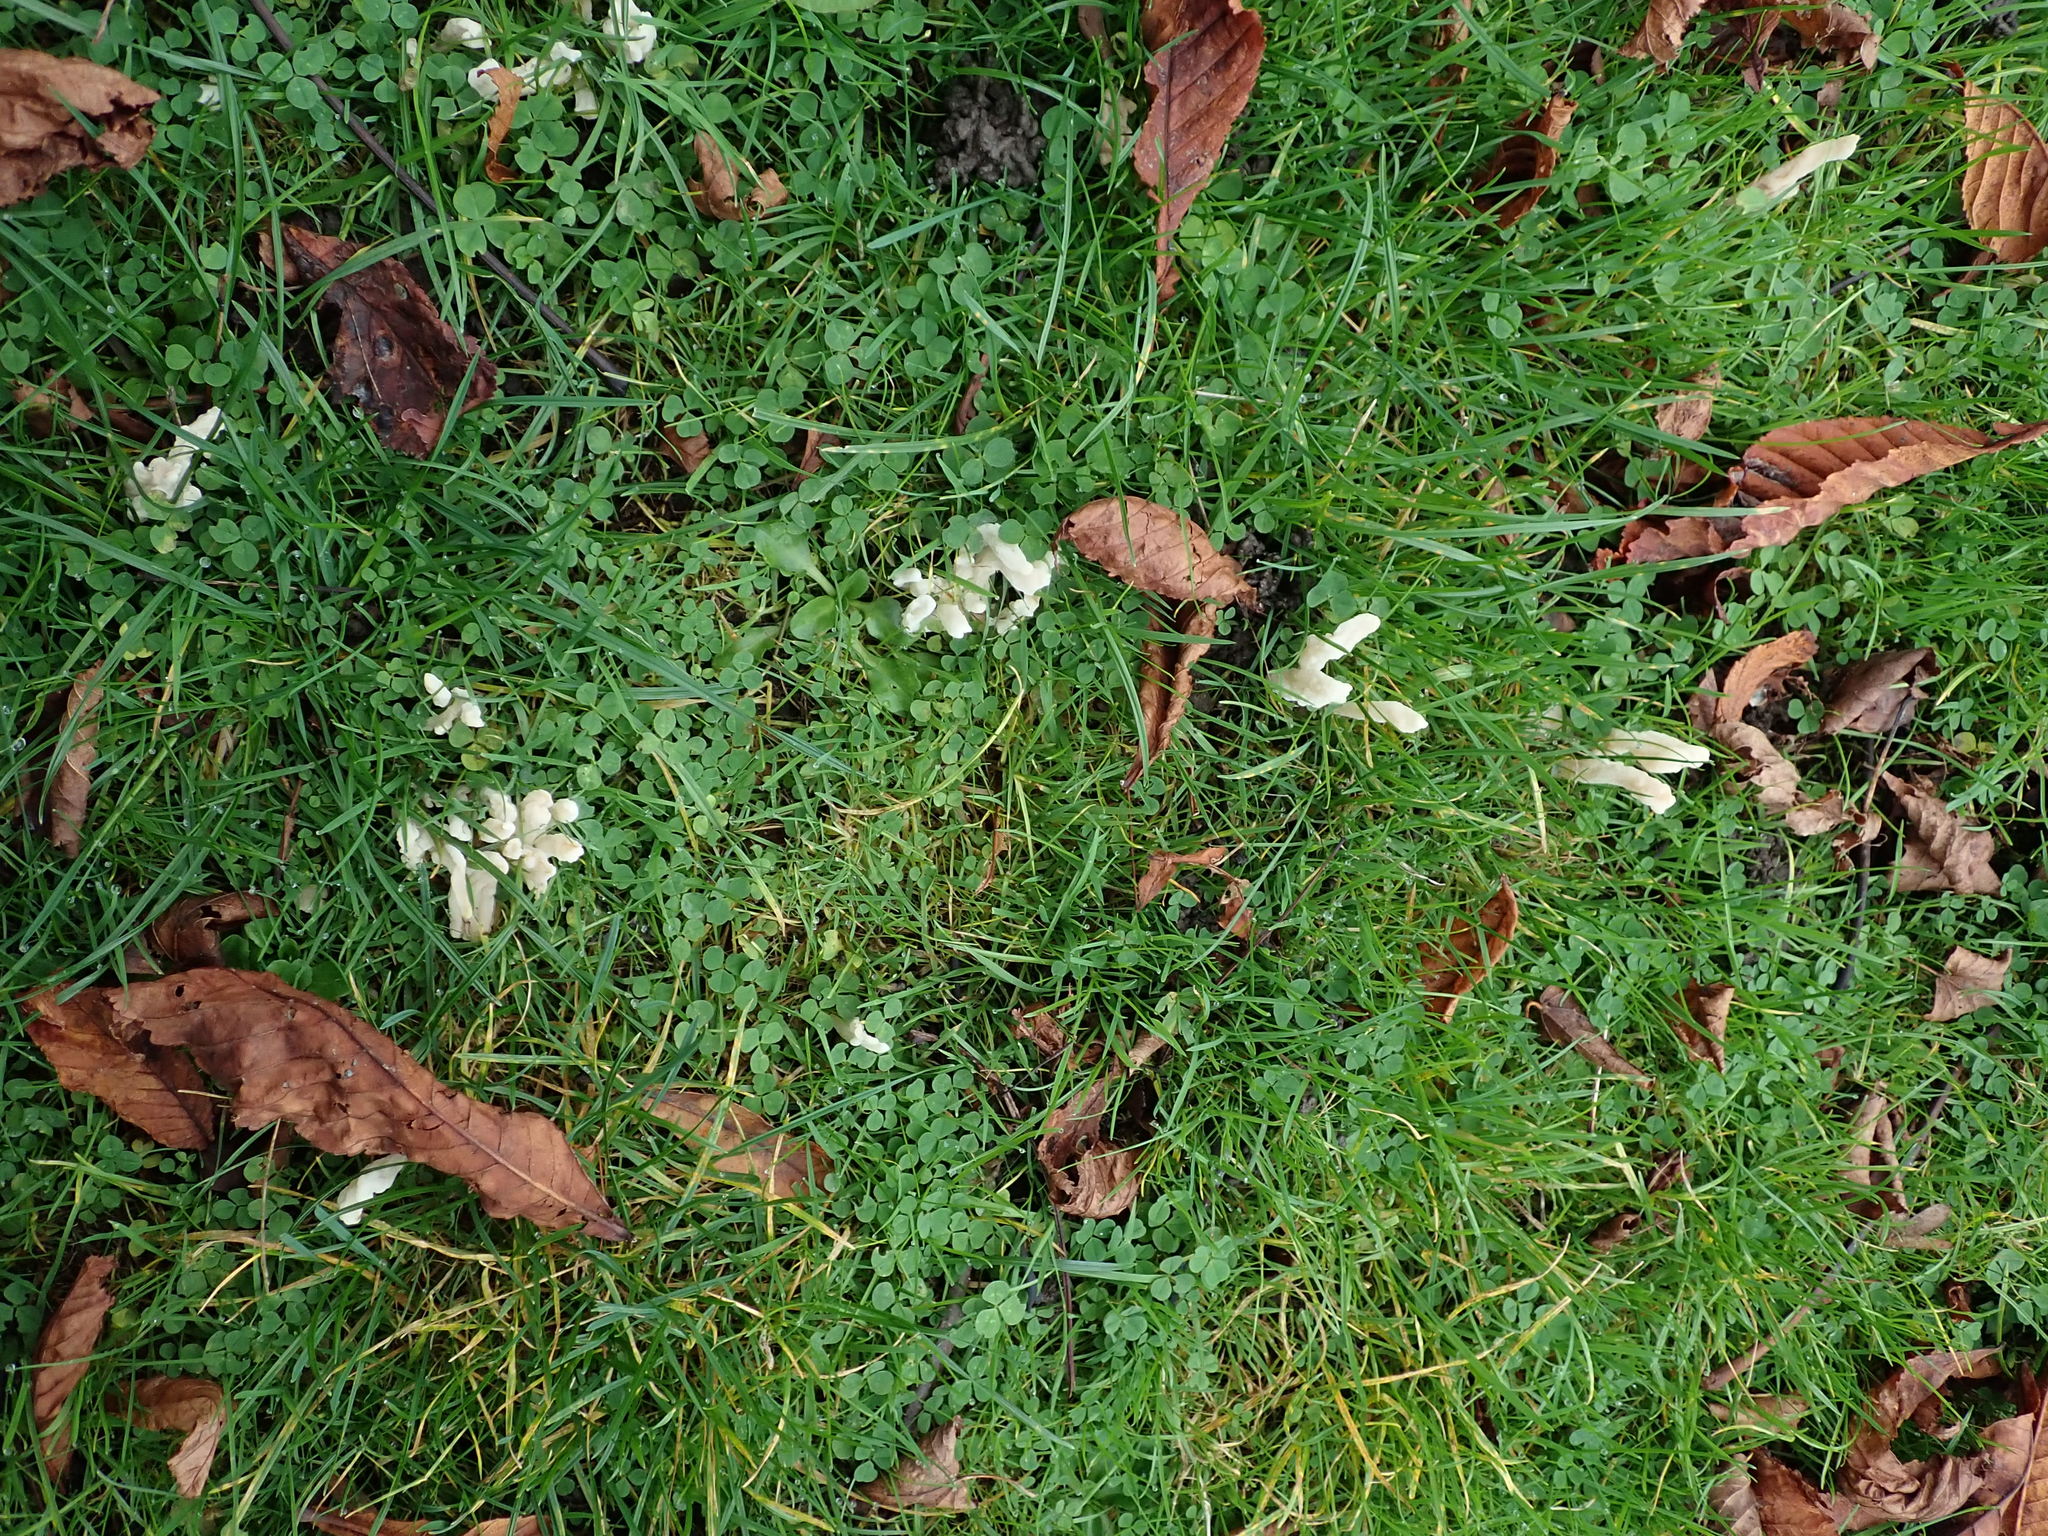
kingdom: Fungi
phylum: Basidiomycota
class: Agaricomycetes
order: Cantharellales
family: Hydnaceae
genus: Clavulina
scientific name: Clavulina rugosa
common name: Wrinkled club
